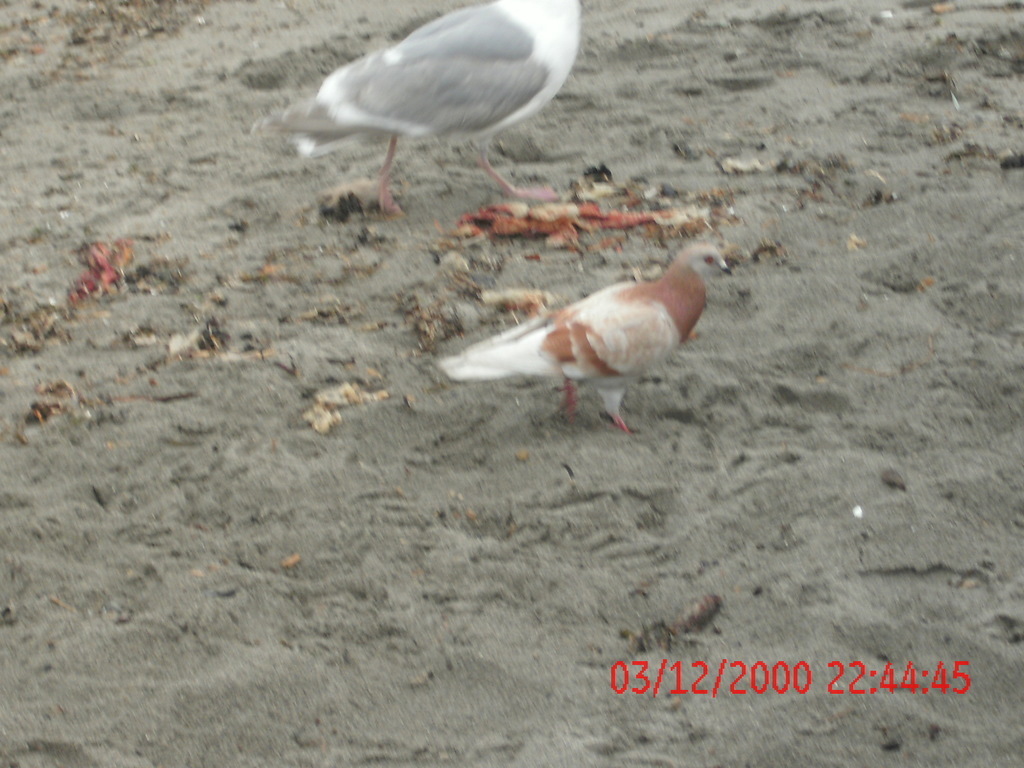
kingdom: Animalia
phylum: Chordata
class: Aves
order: Columbiformes
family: Columbidae
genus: Columba
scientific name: Columba livia
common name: Rock pigeon
